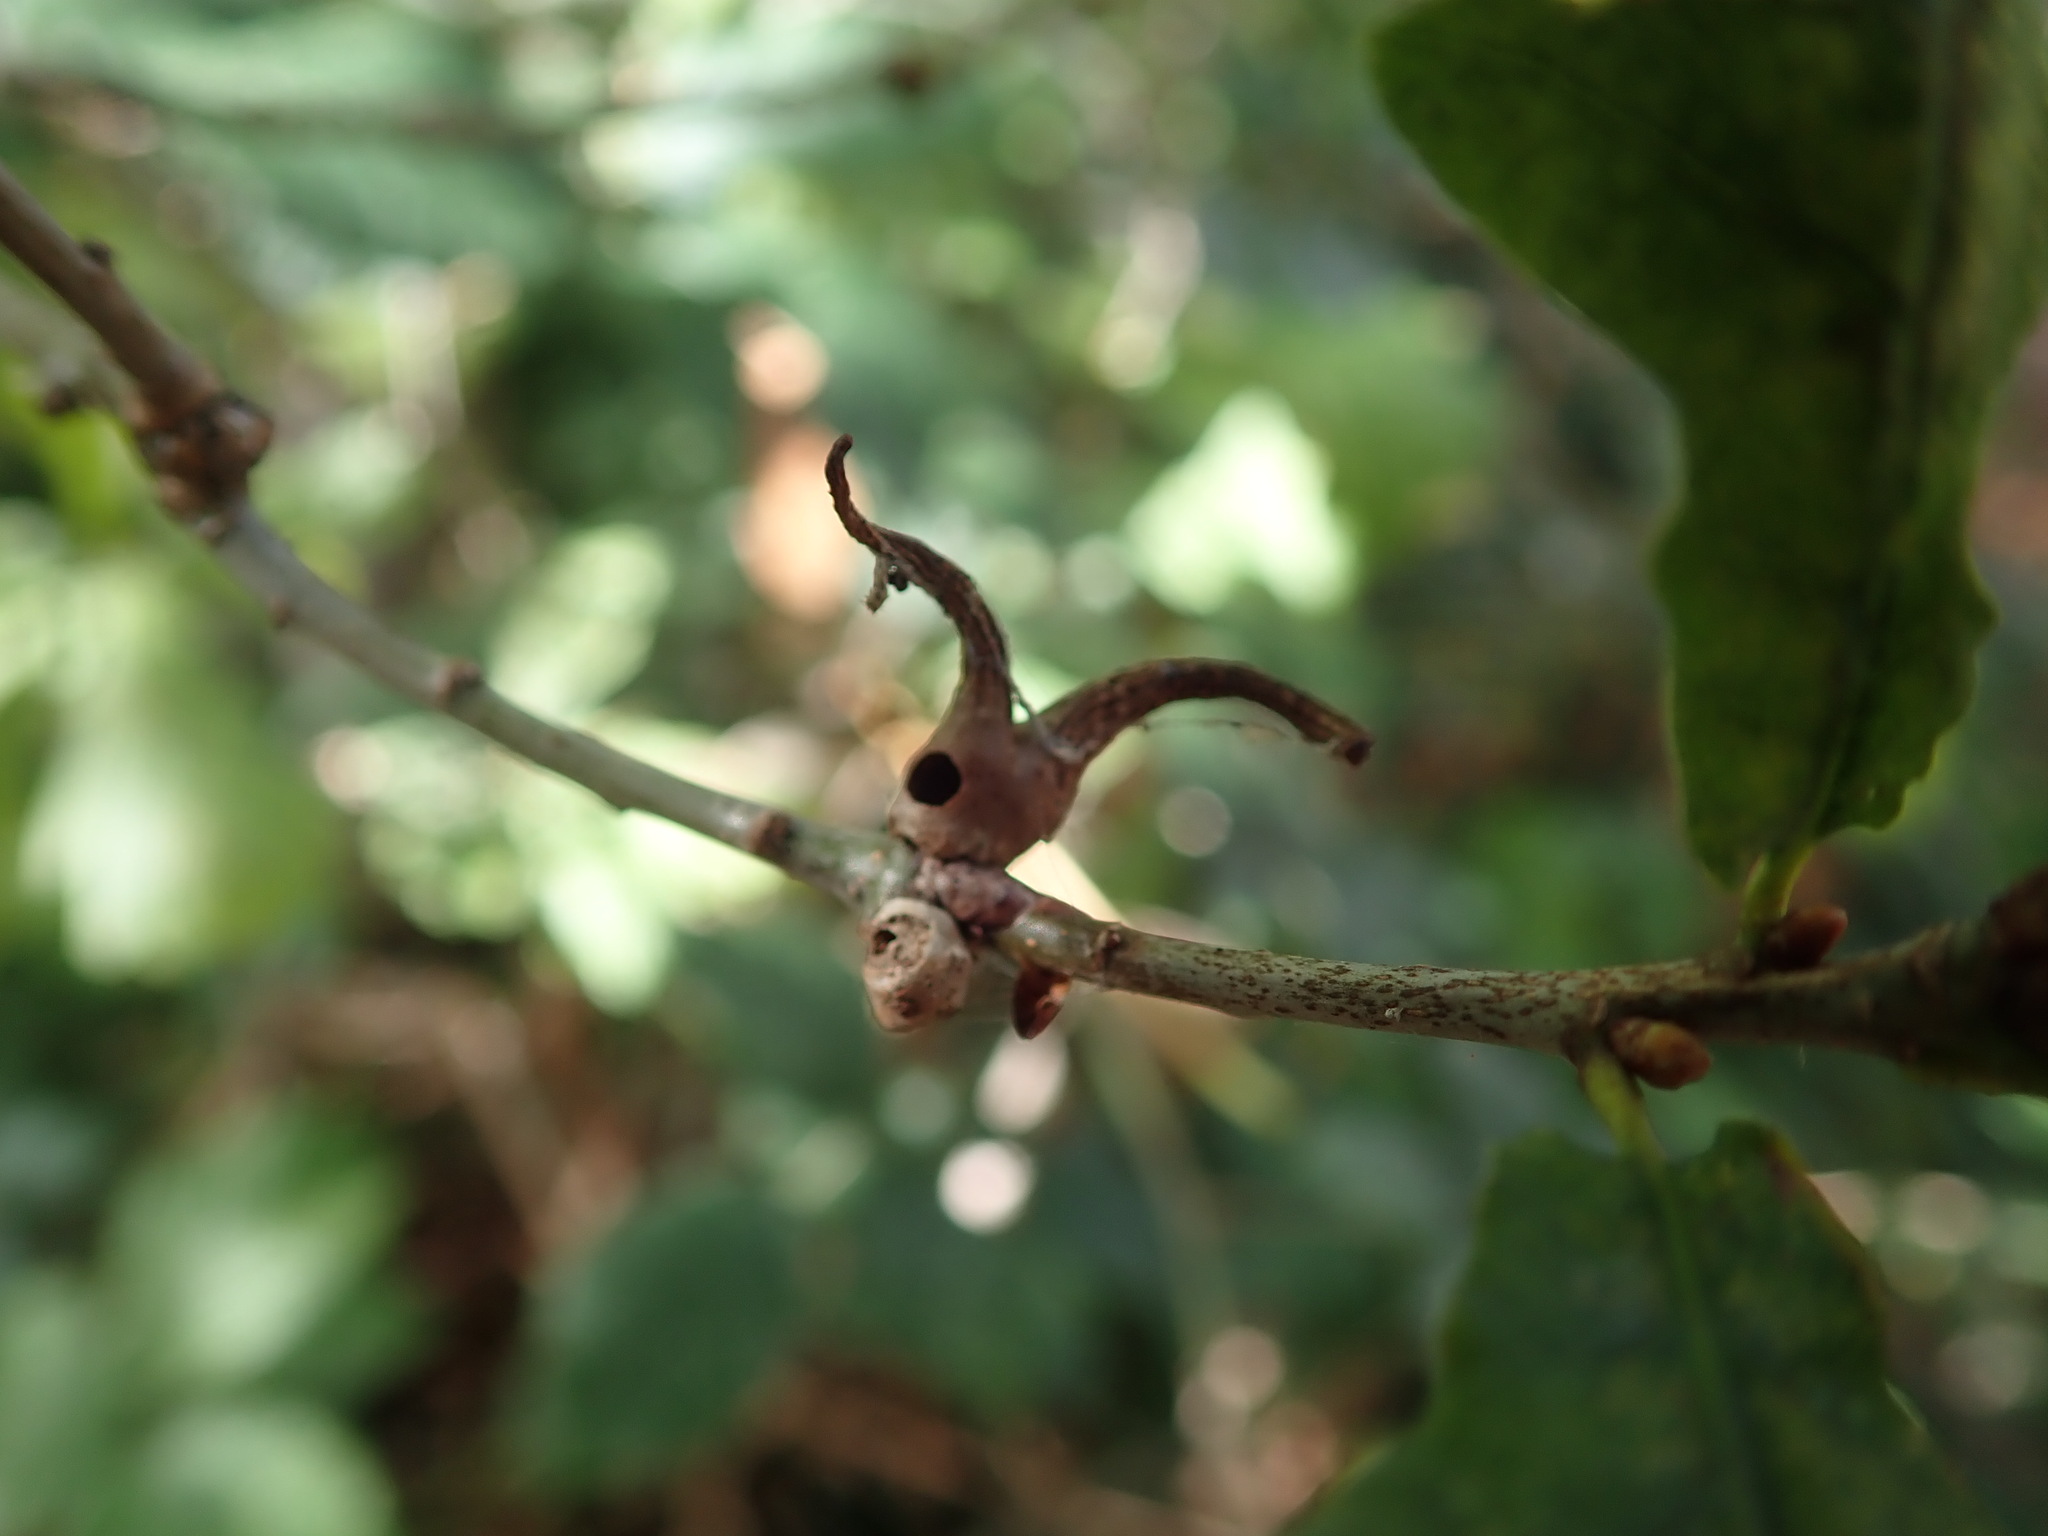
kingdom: Animalia
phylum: Arthropoda
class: Insecta
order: Hymenoptera
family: Cynipidae
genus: Andricus
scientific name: Andricus aries
